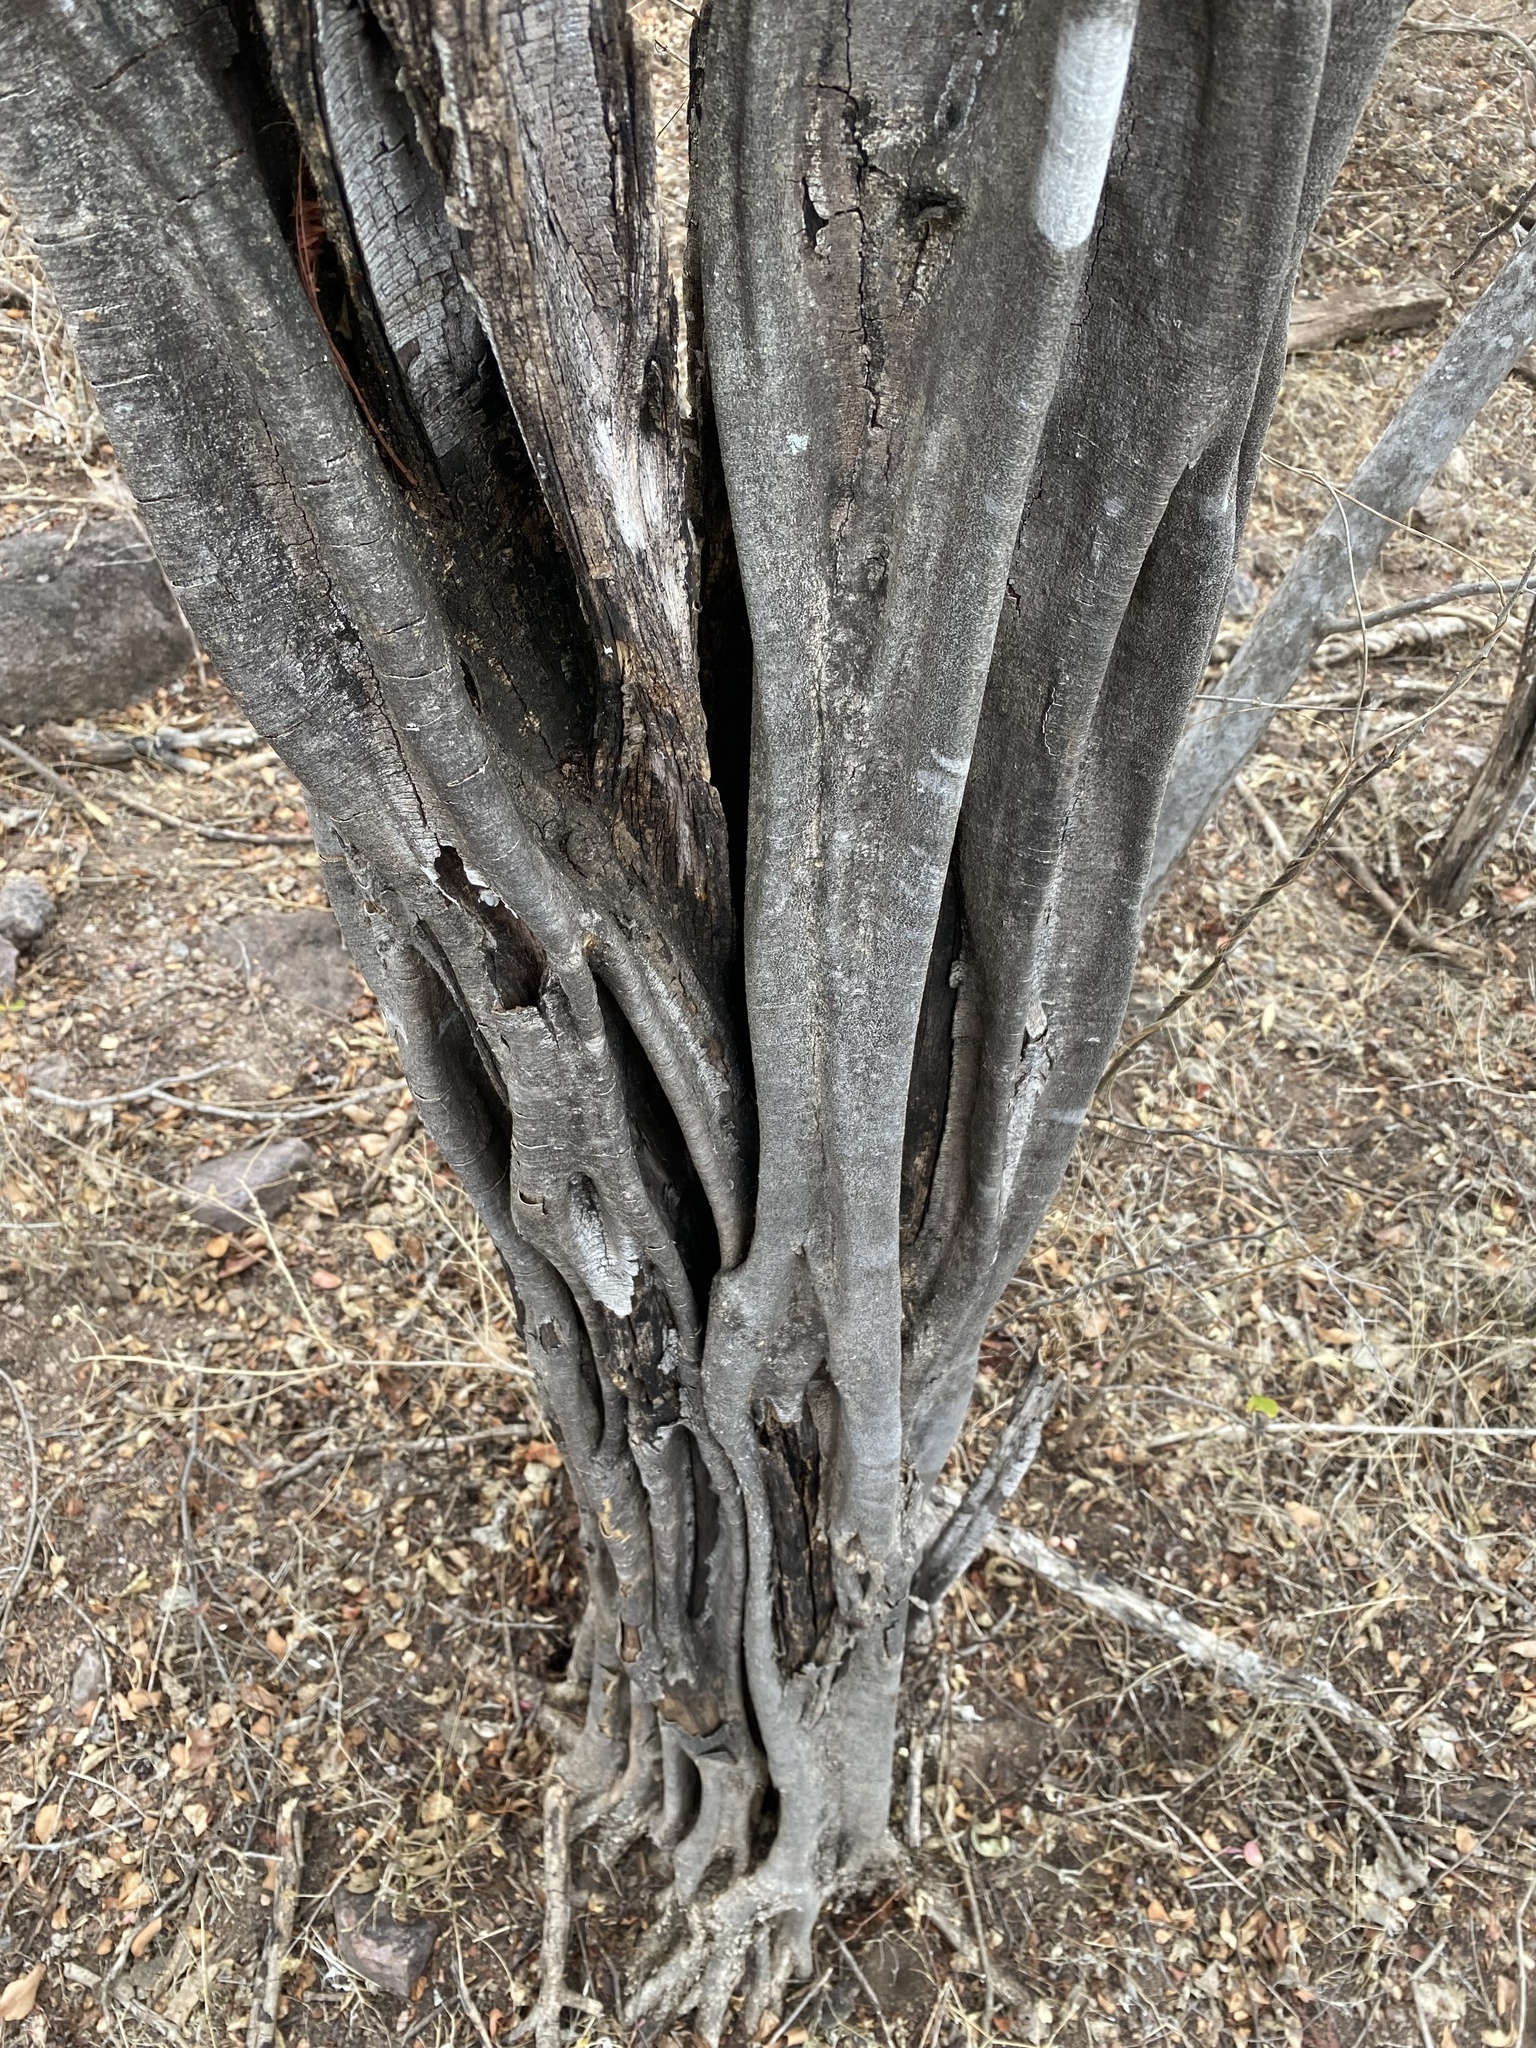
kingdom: Plantae
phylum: Tracheophyta
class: Magnoliopsida
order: Fabales
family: Fabaceae
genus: Haematoxylum
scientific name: Haematoxylum brasiletto
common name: Peachwood
